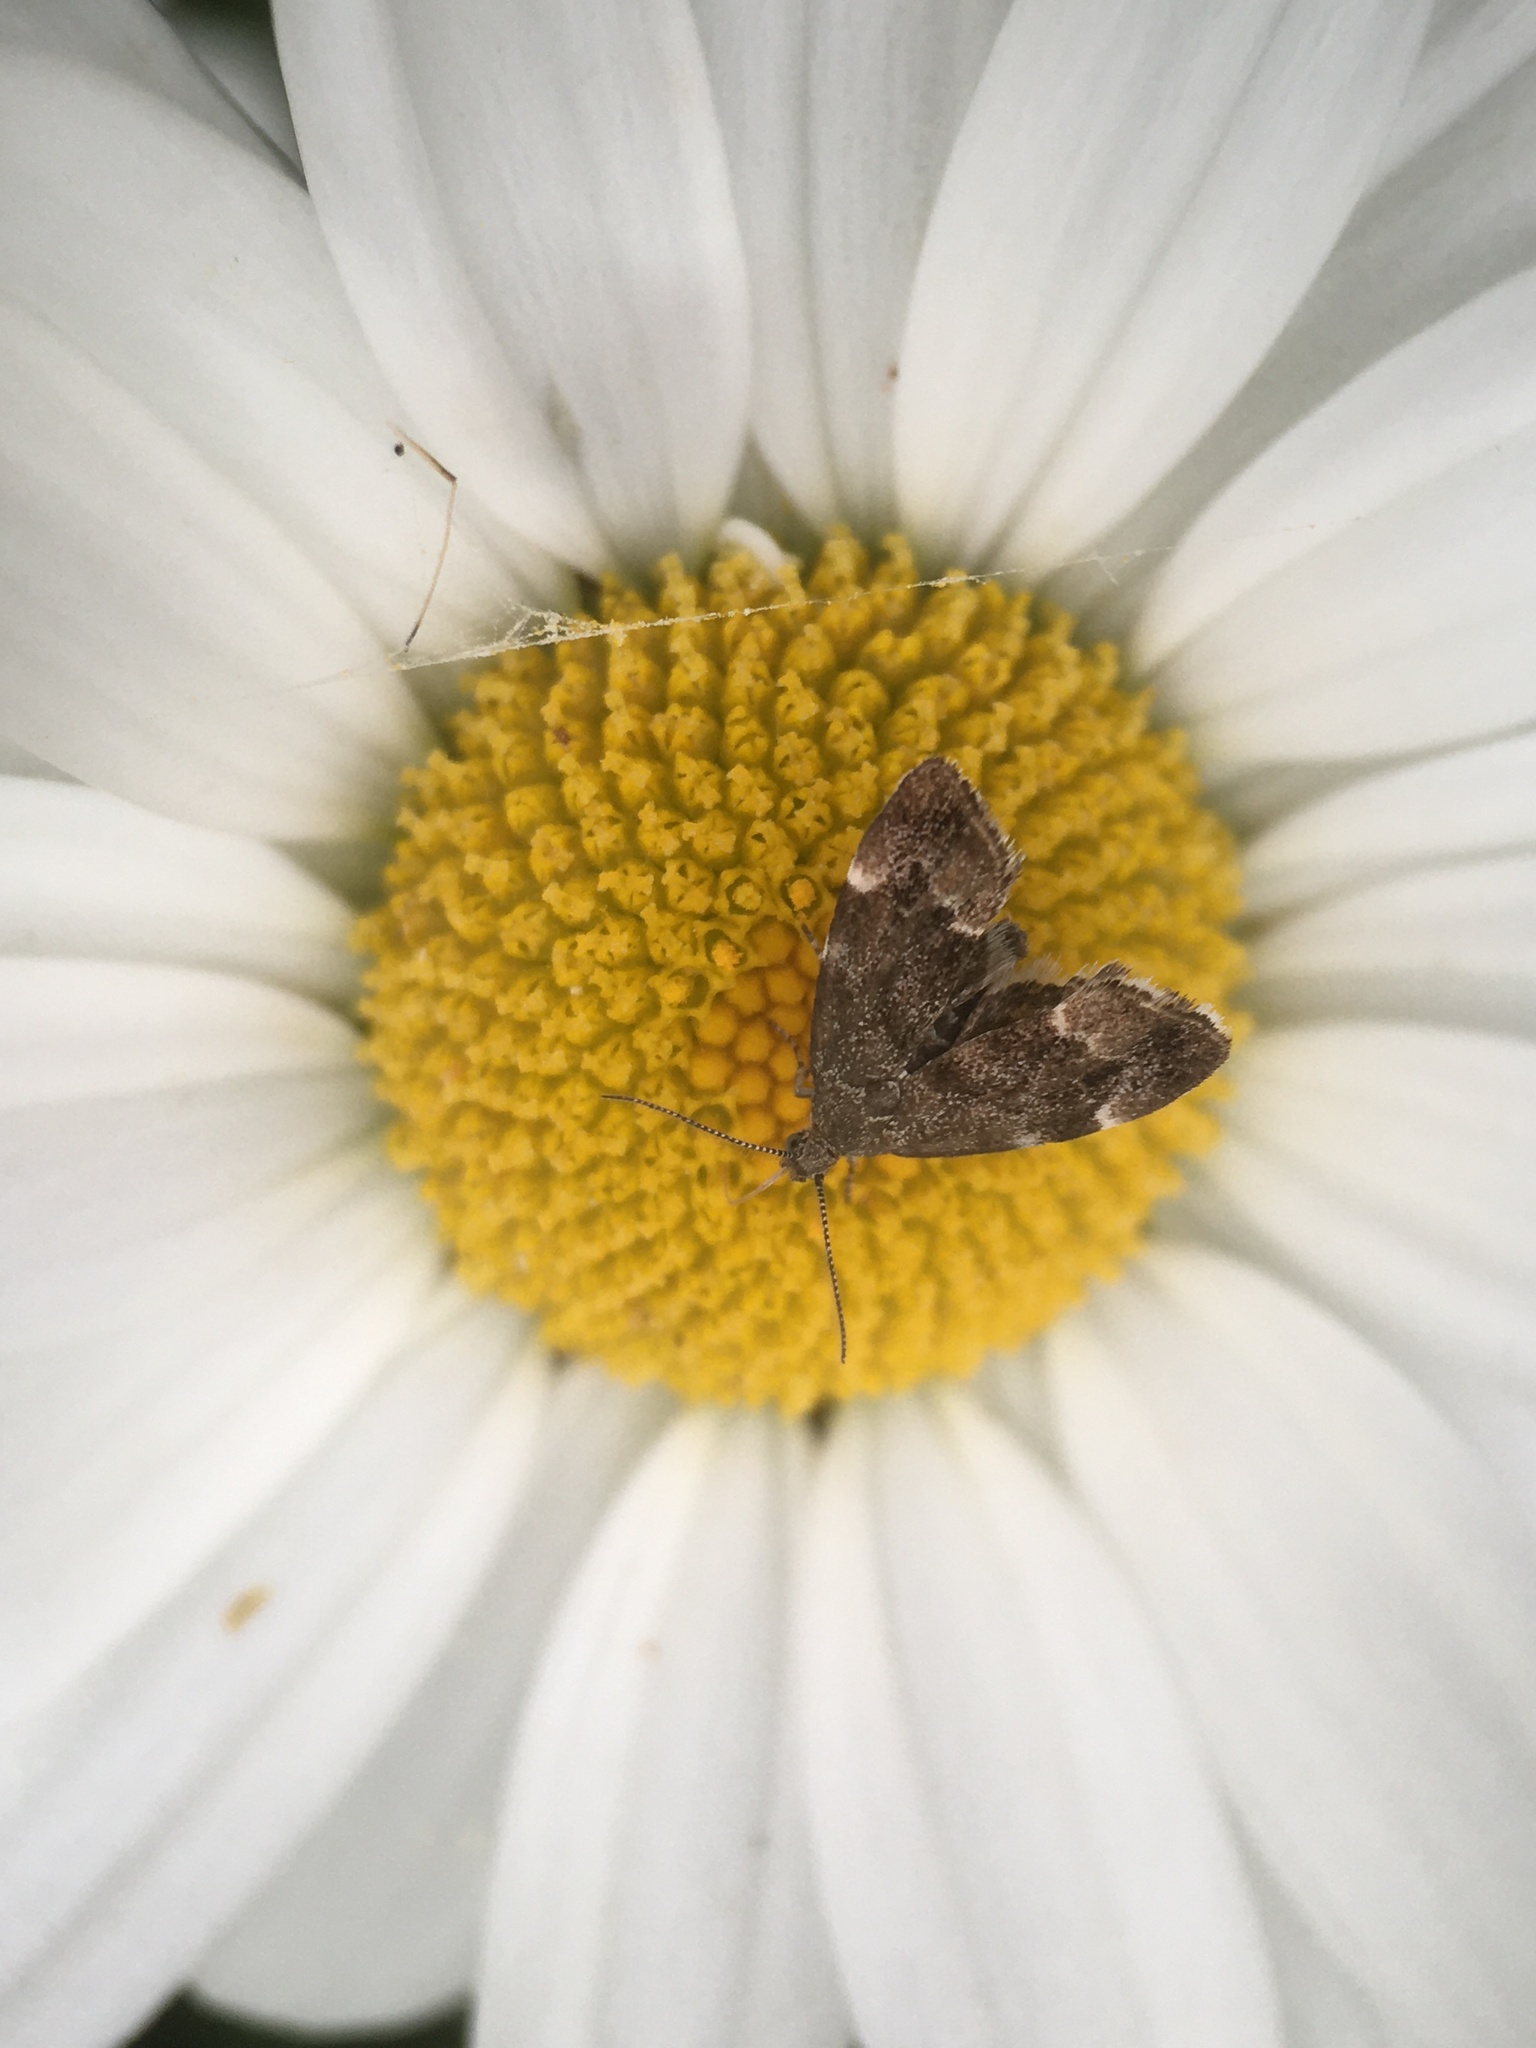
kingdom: Animalia
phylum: Arthropoda
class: Insecta
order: Lepidoptera
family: Choreutidae
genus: Anthophila
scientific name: Anthophila fabriciana
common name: Nettle-tap
